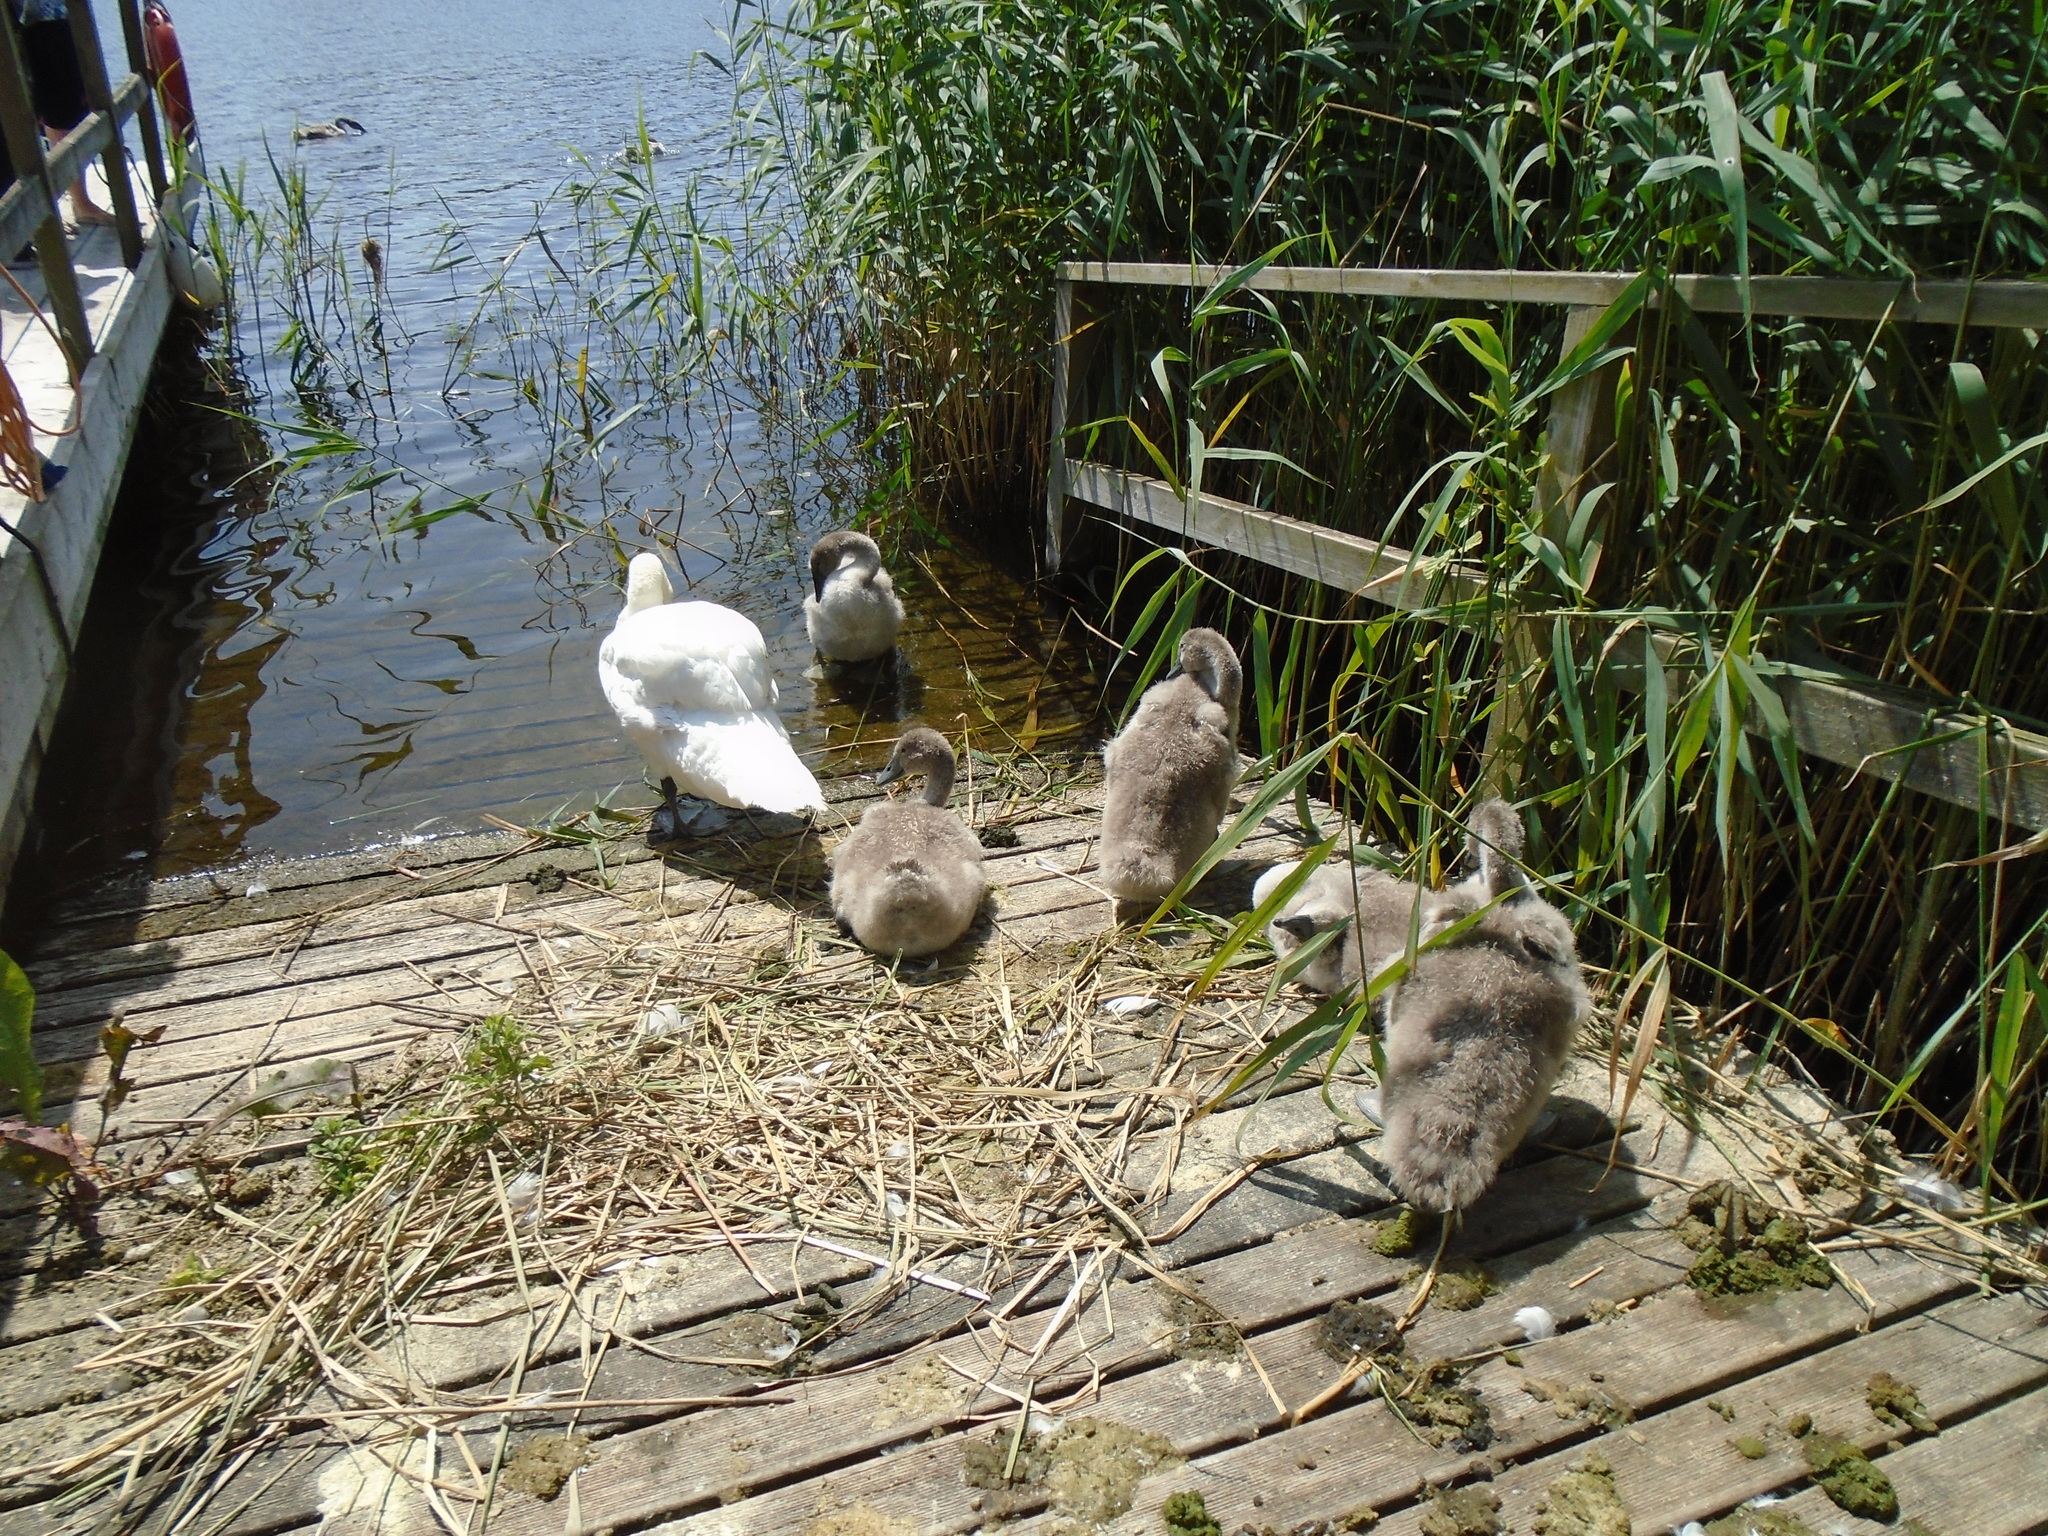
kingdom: Animalia
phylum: Chordata
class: Aves
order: Anseriformes
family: Anatidae
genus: Cygnus
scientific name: Cygnus olor
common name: Mute swan
